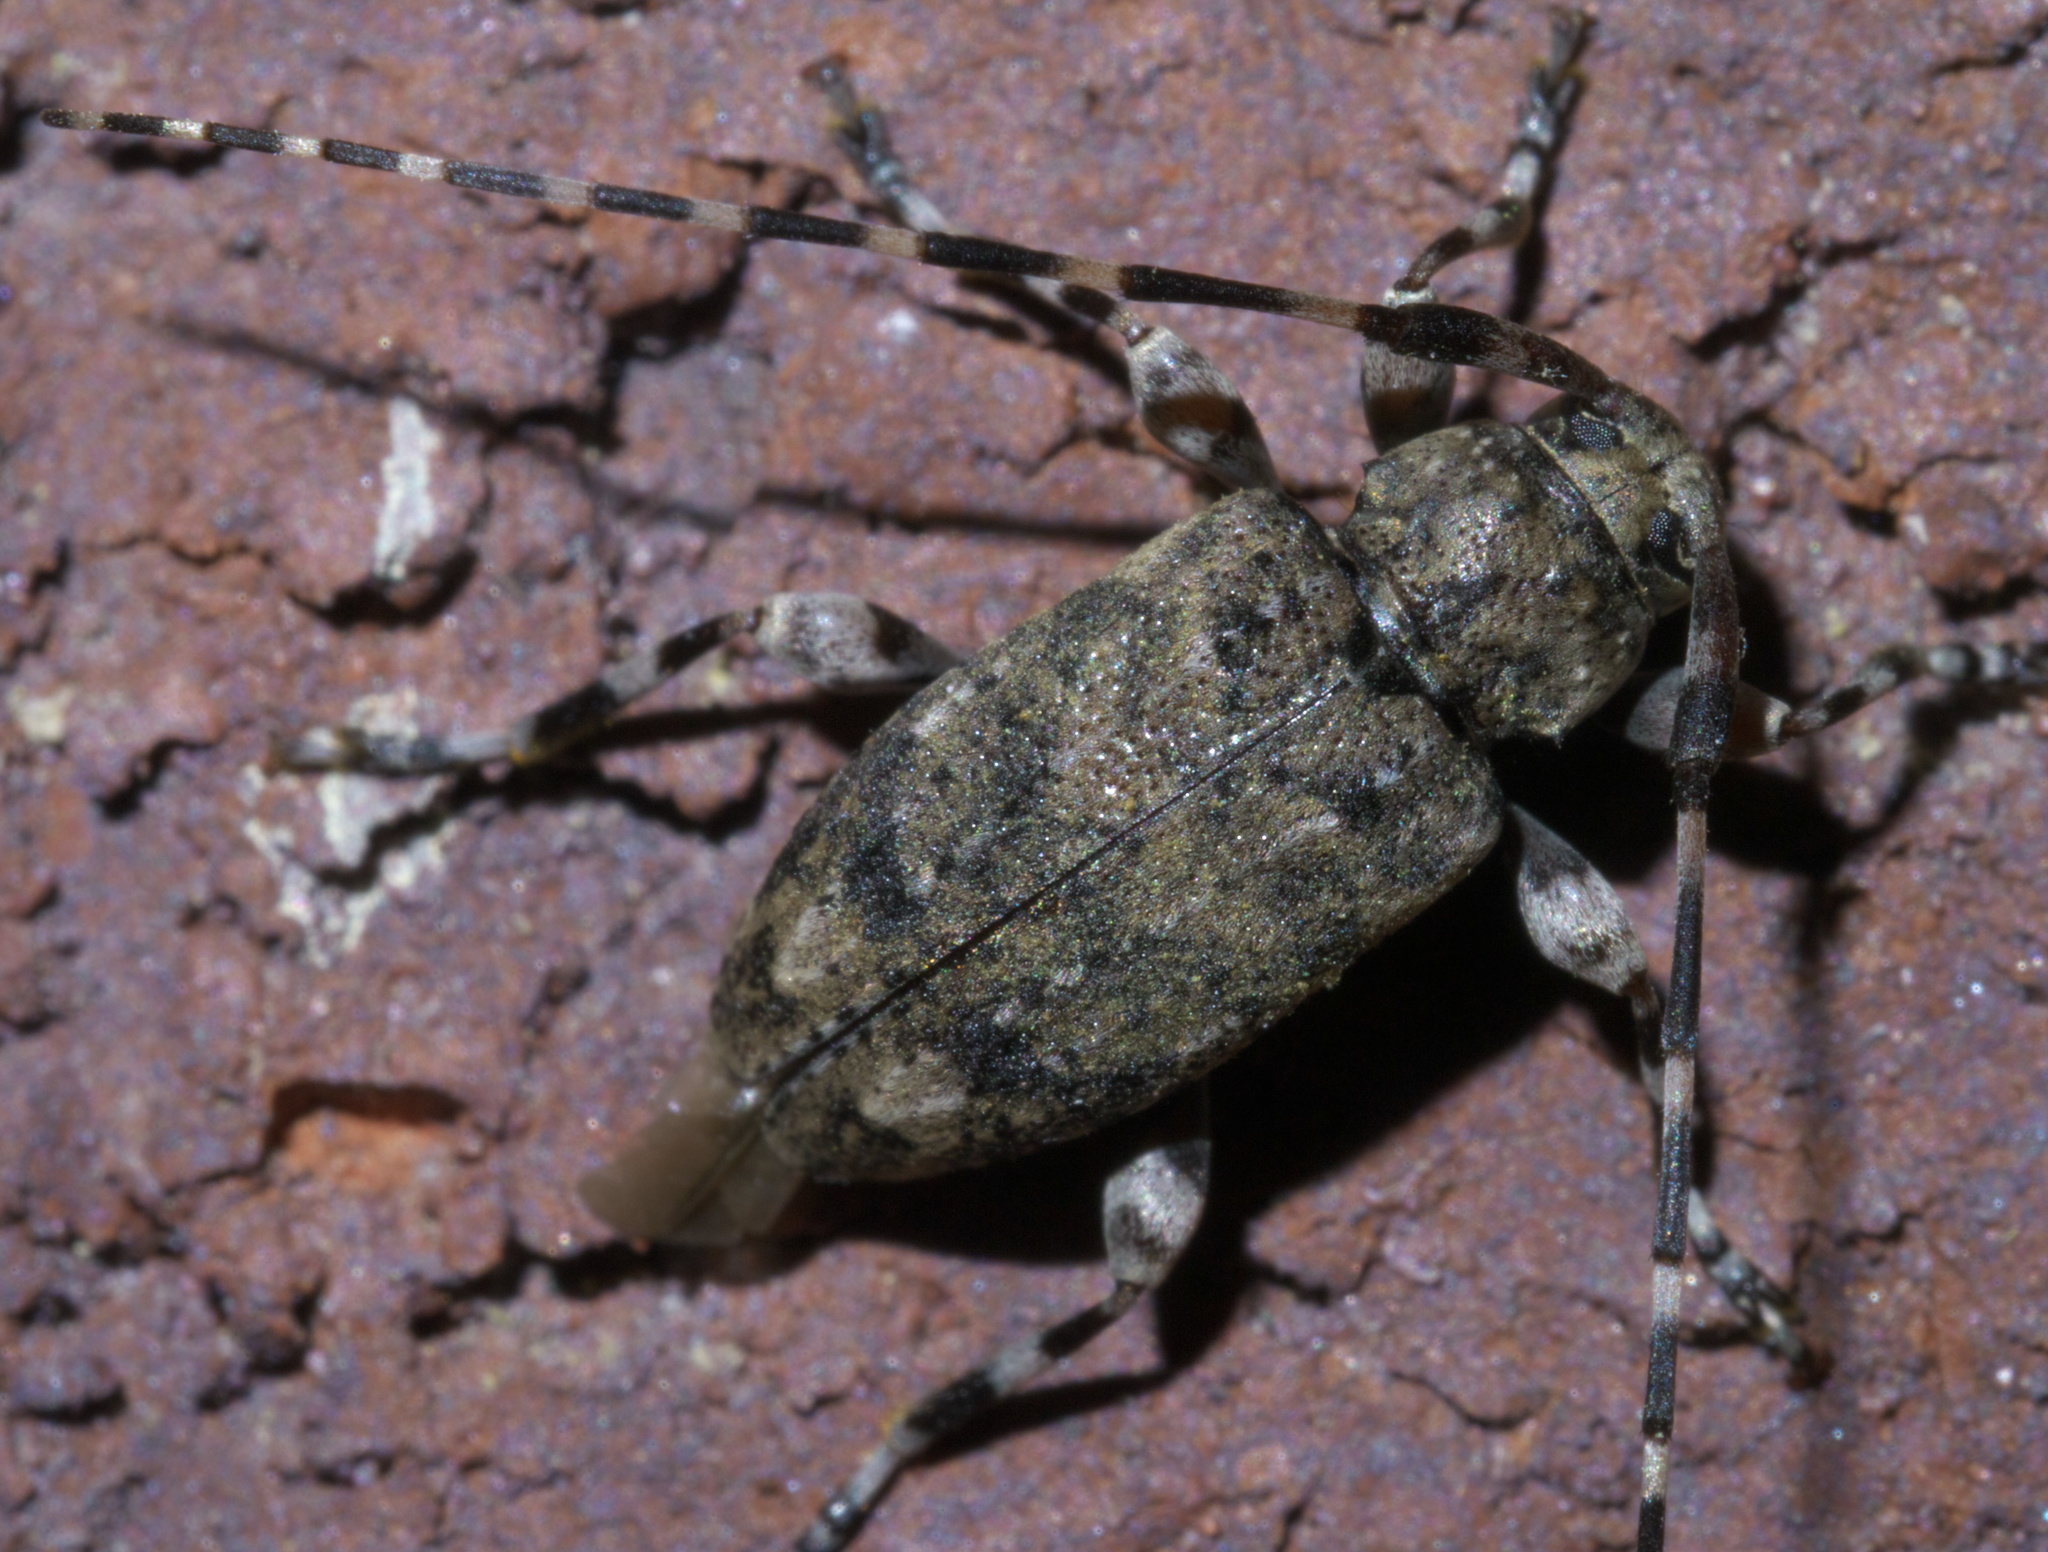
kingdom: Animalia
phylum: Arthropoda
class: Insecta
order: Coleoptera
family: Cerambycidae
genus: Astyleiopus
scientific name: Astyleiopus variegatus
